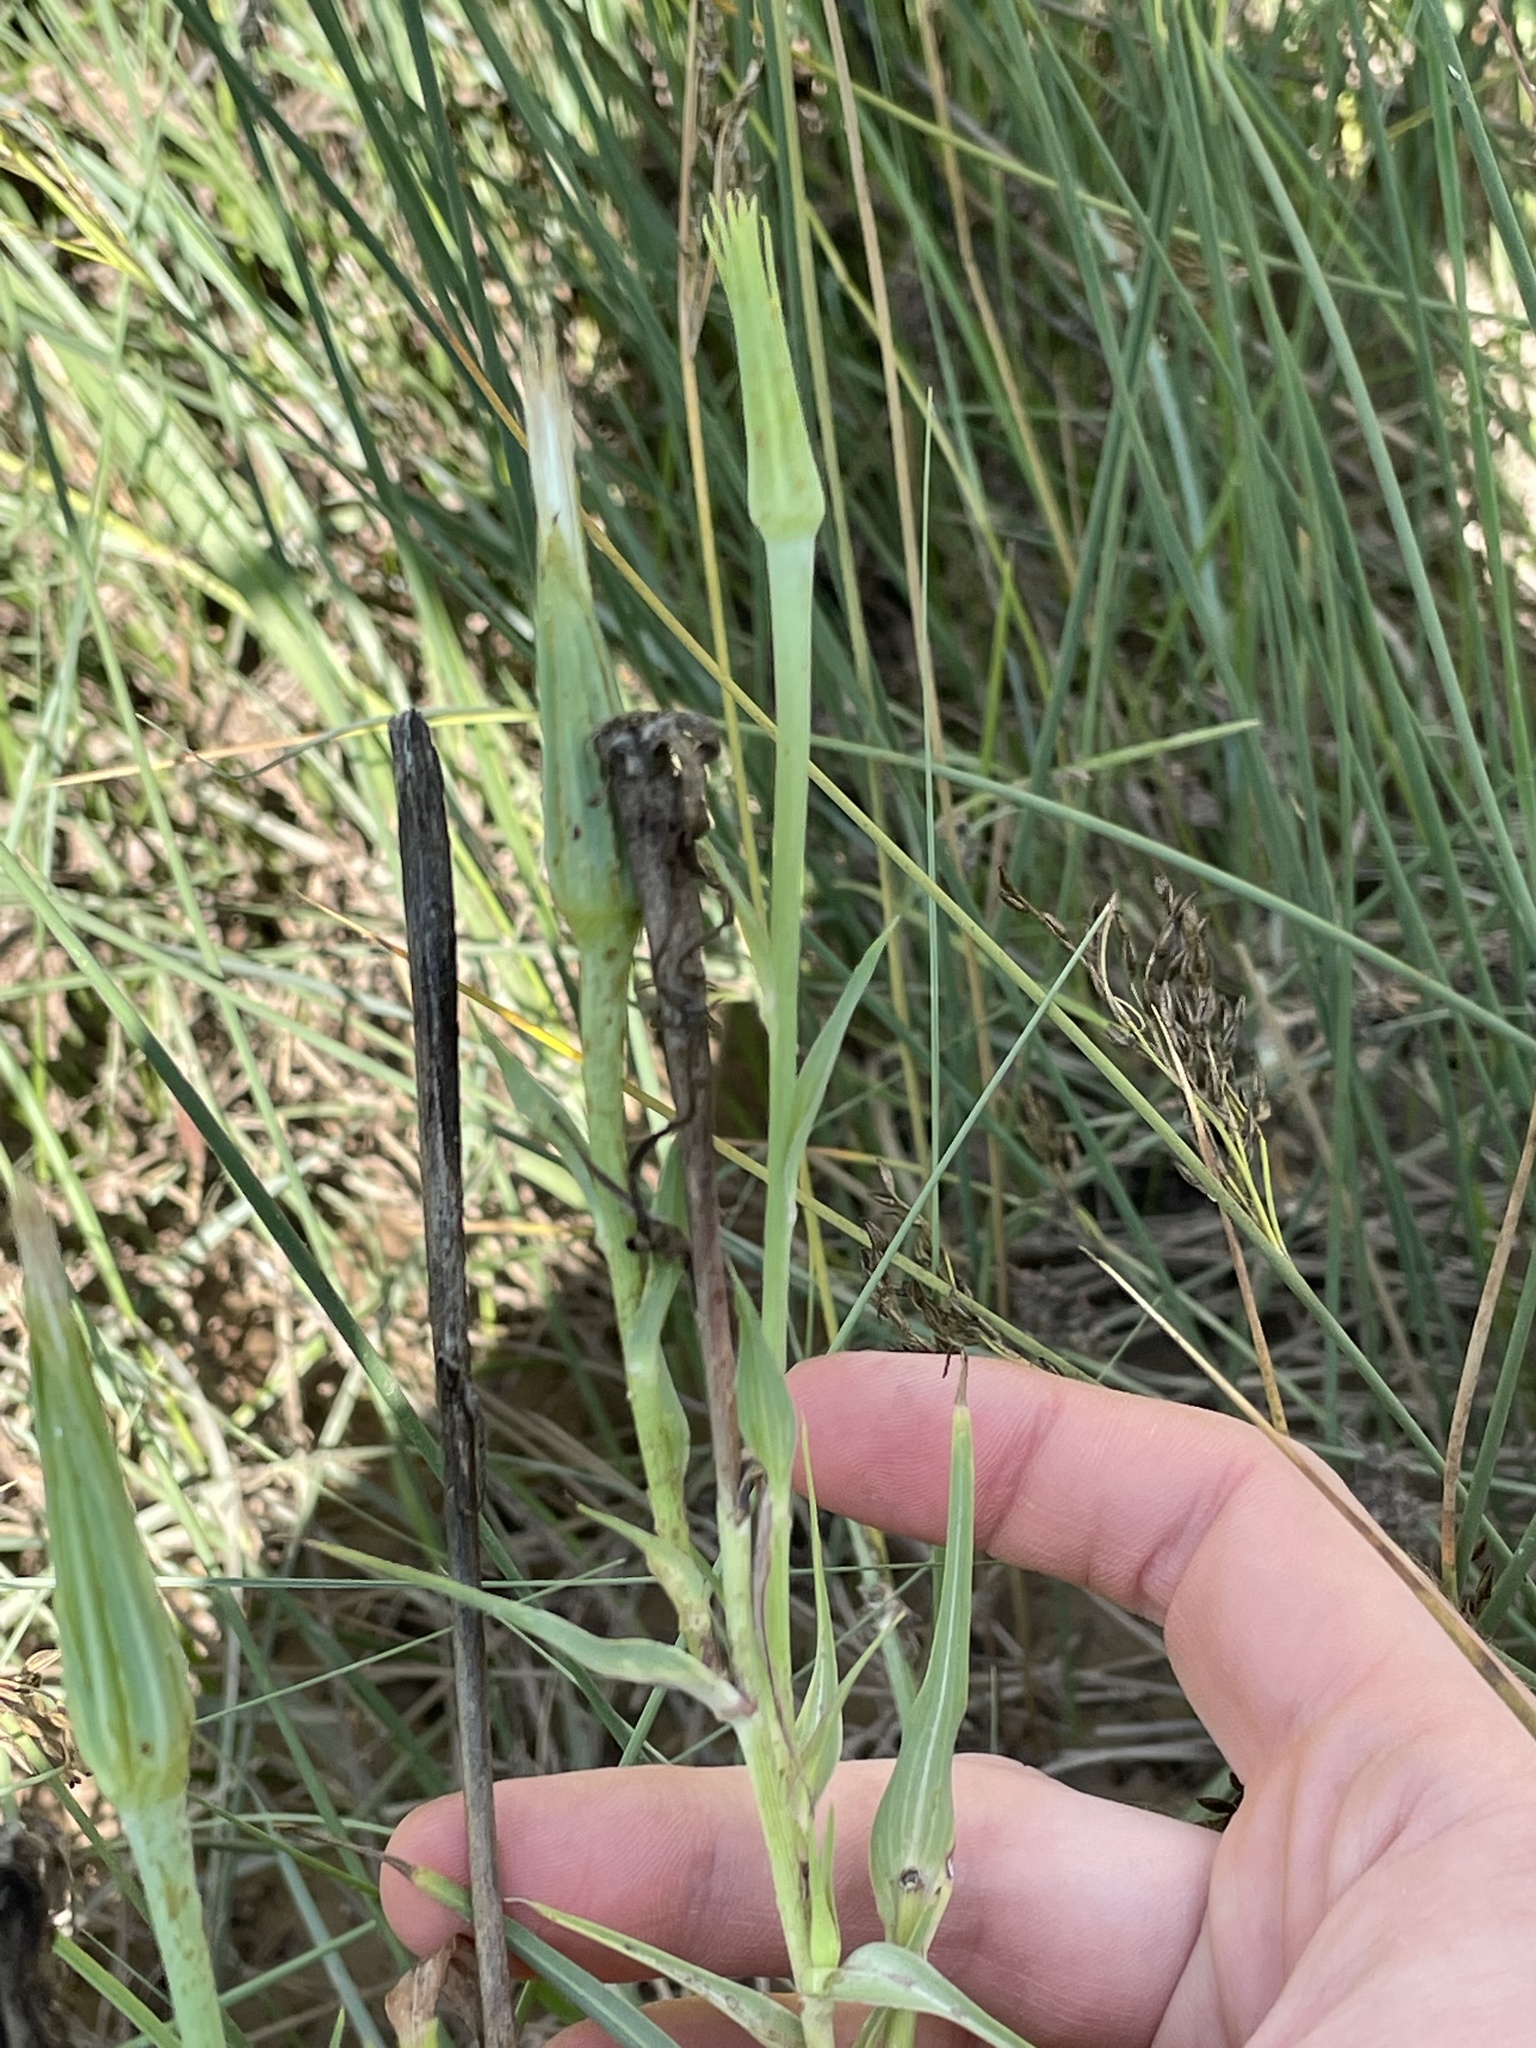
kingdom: Plantae
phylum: Tracheophyta
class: Magnoliopsida
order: Asterales
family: Asteraceae
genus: Tragopogon
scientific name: Tragopogon dubius
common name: Yellow salsify
